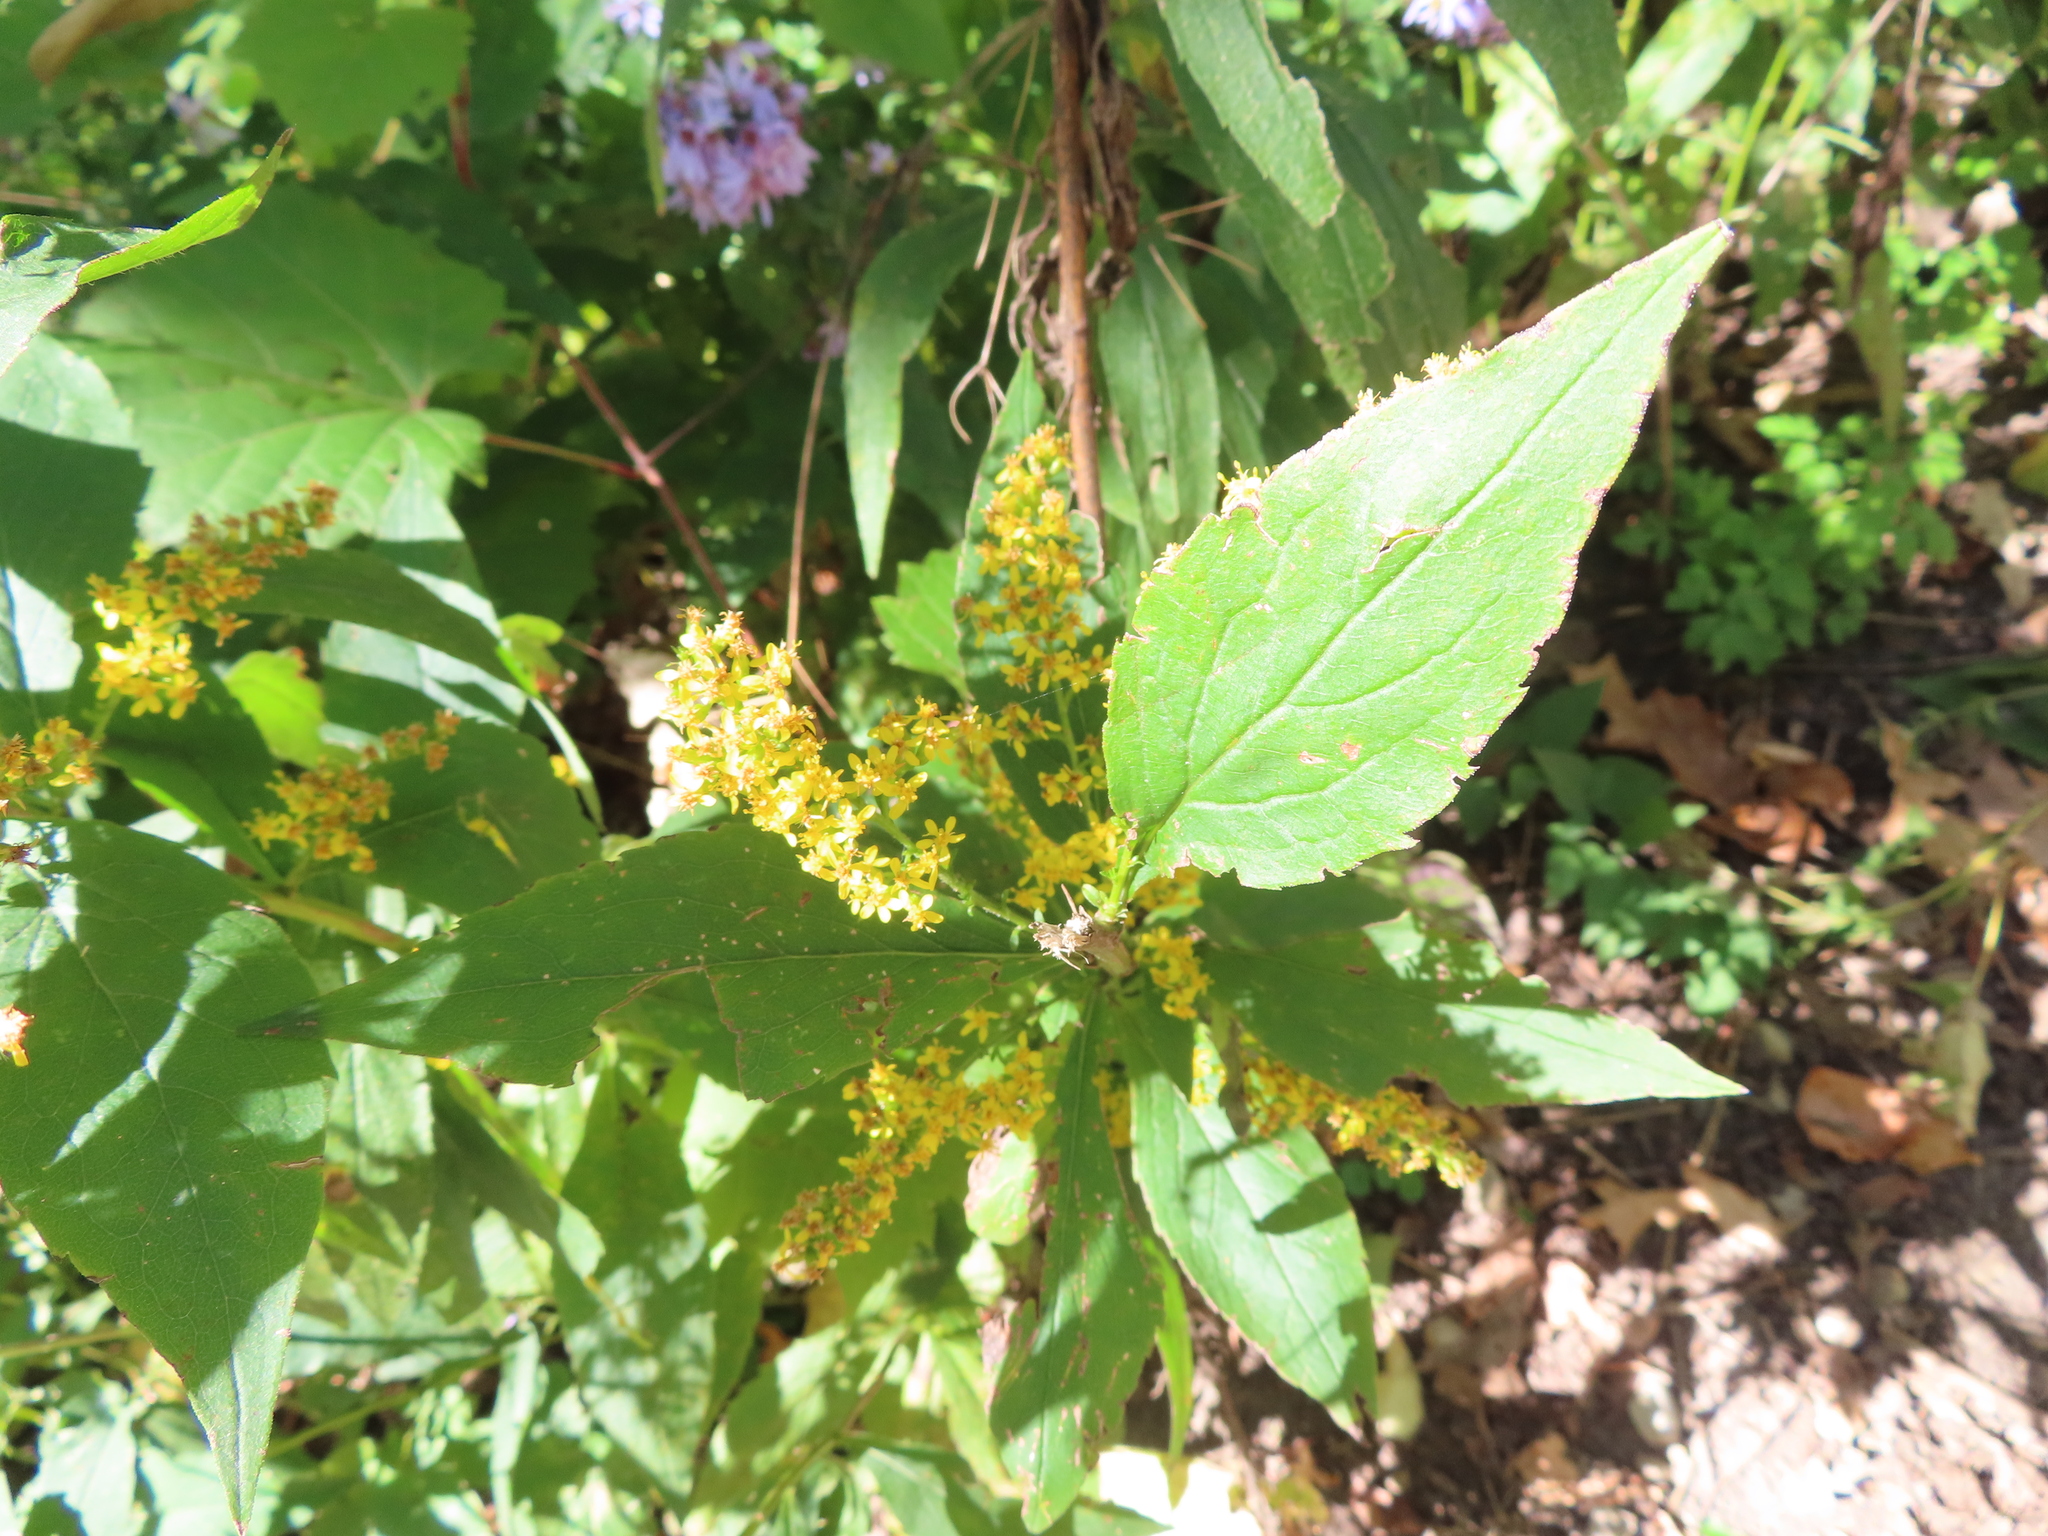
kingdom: Plantae
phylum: Tracheophyta
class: Magnoliopsida
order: Asterales
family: Asteraceae
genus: Solidago
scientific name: Solidago ulmifolia
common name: Elm-leaf goldenrod
